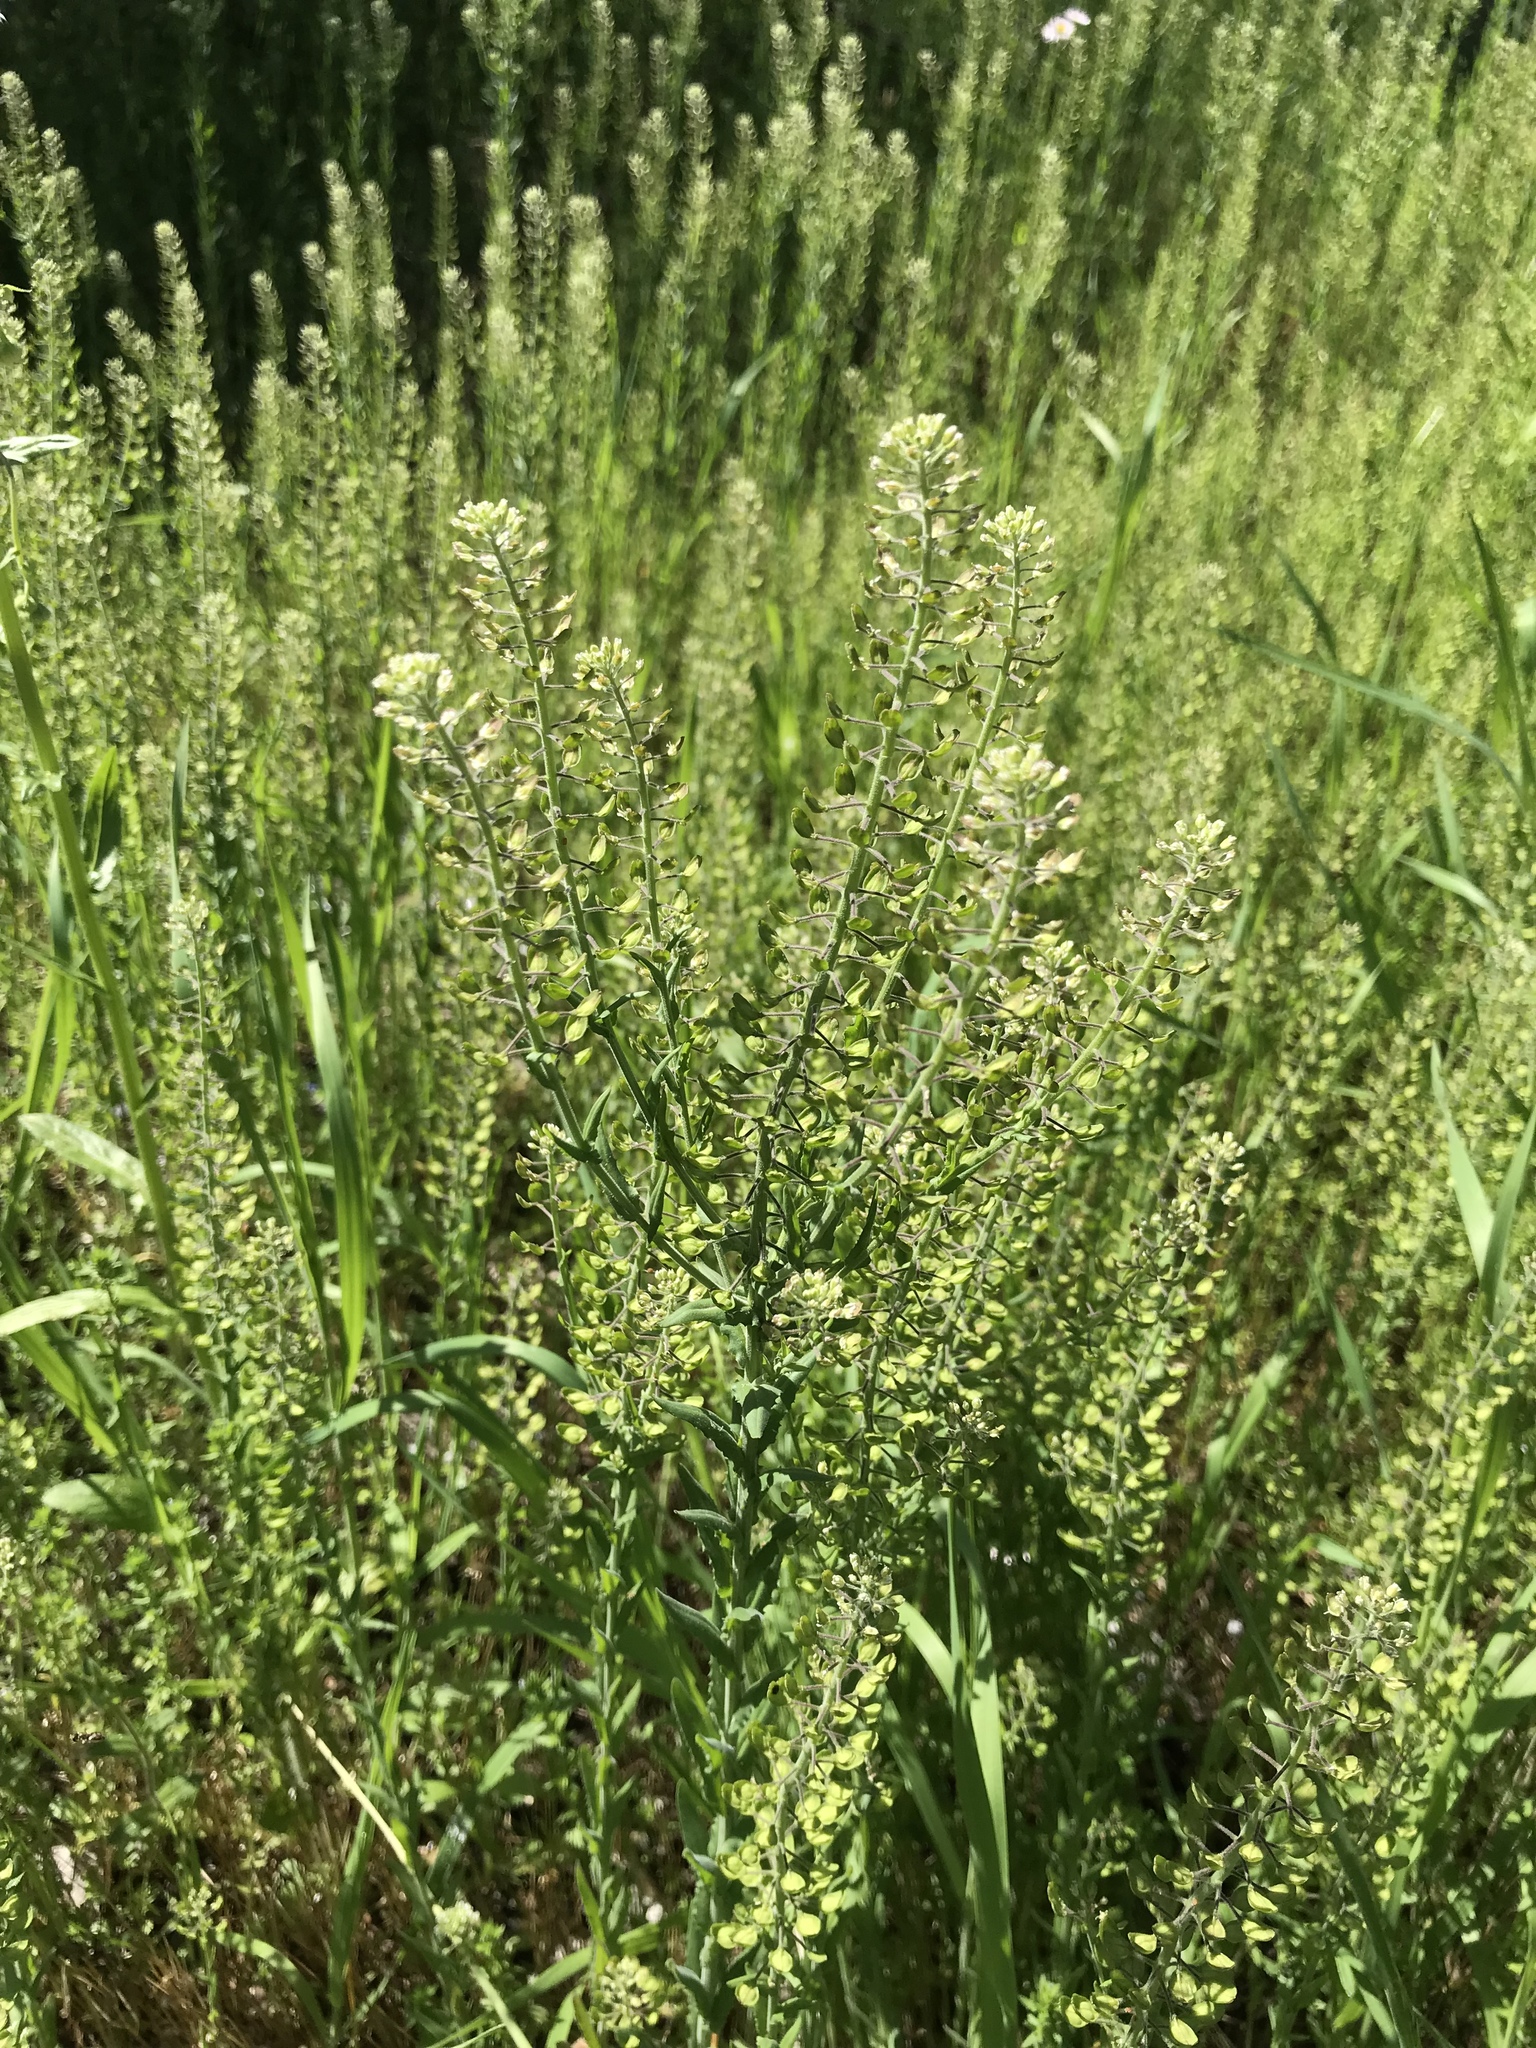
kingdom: Plantae
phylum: Tracheophyta
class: Magnoliopsida
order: Brassicales
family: Brassicaceae
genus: Lepidium
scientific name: Lepidium campestre
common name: Field pepperwort
